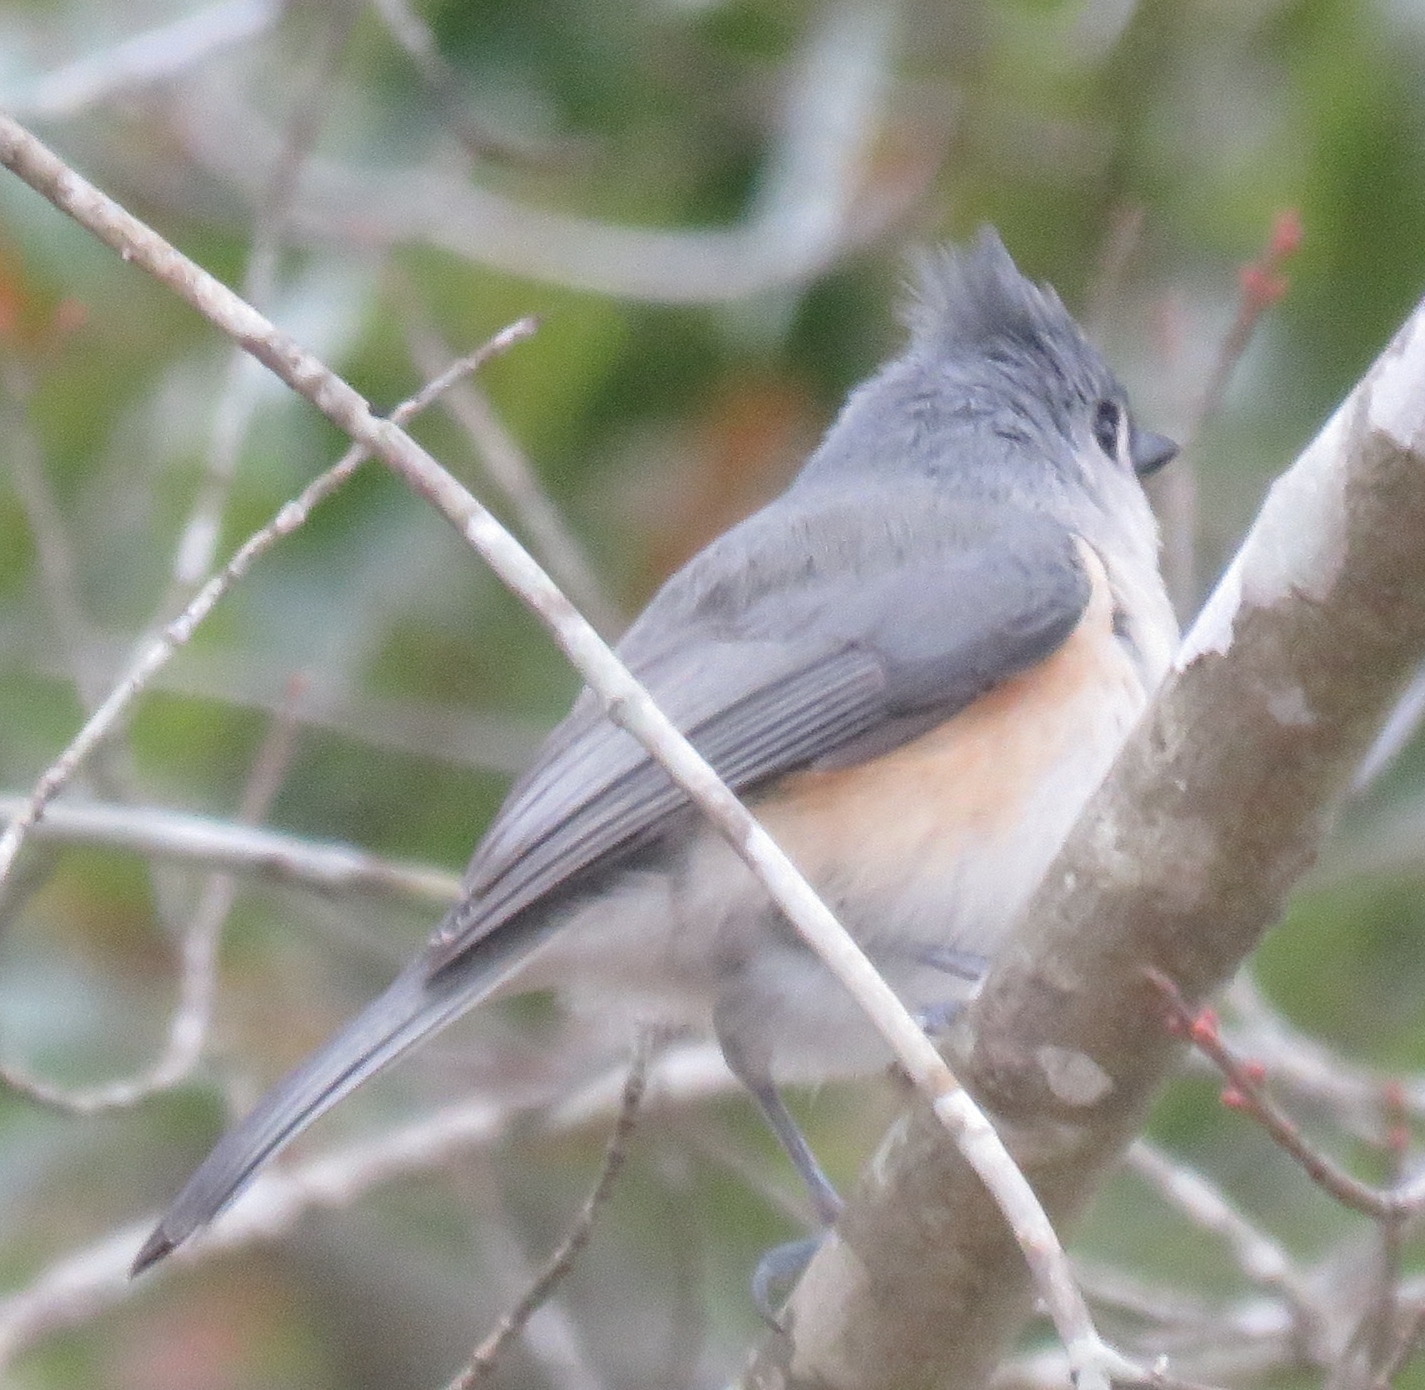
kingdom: Animalia
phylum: Chordata
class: Aves
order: Passeriformes
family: Paridae
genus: Baeolophus
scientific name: Baeolophus bicolor
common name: Tufted titmouse
